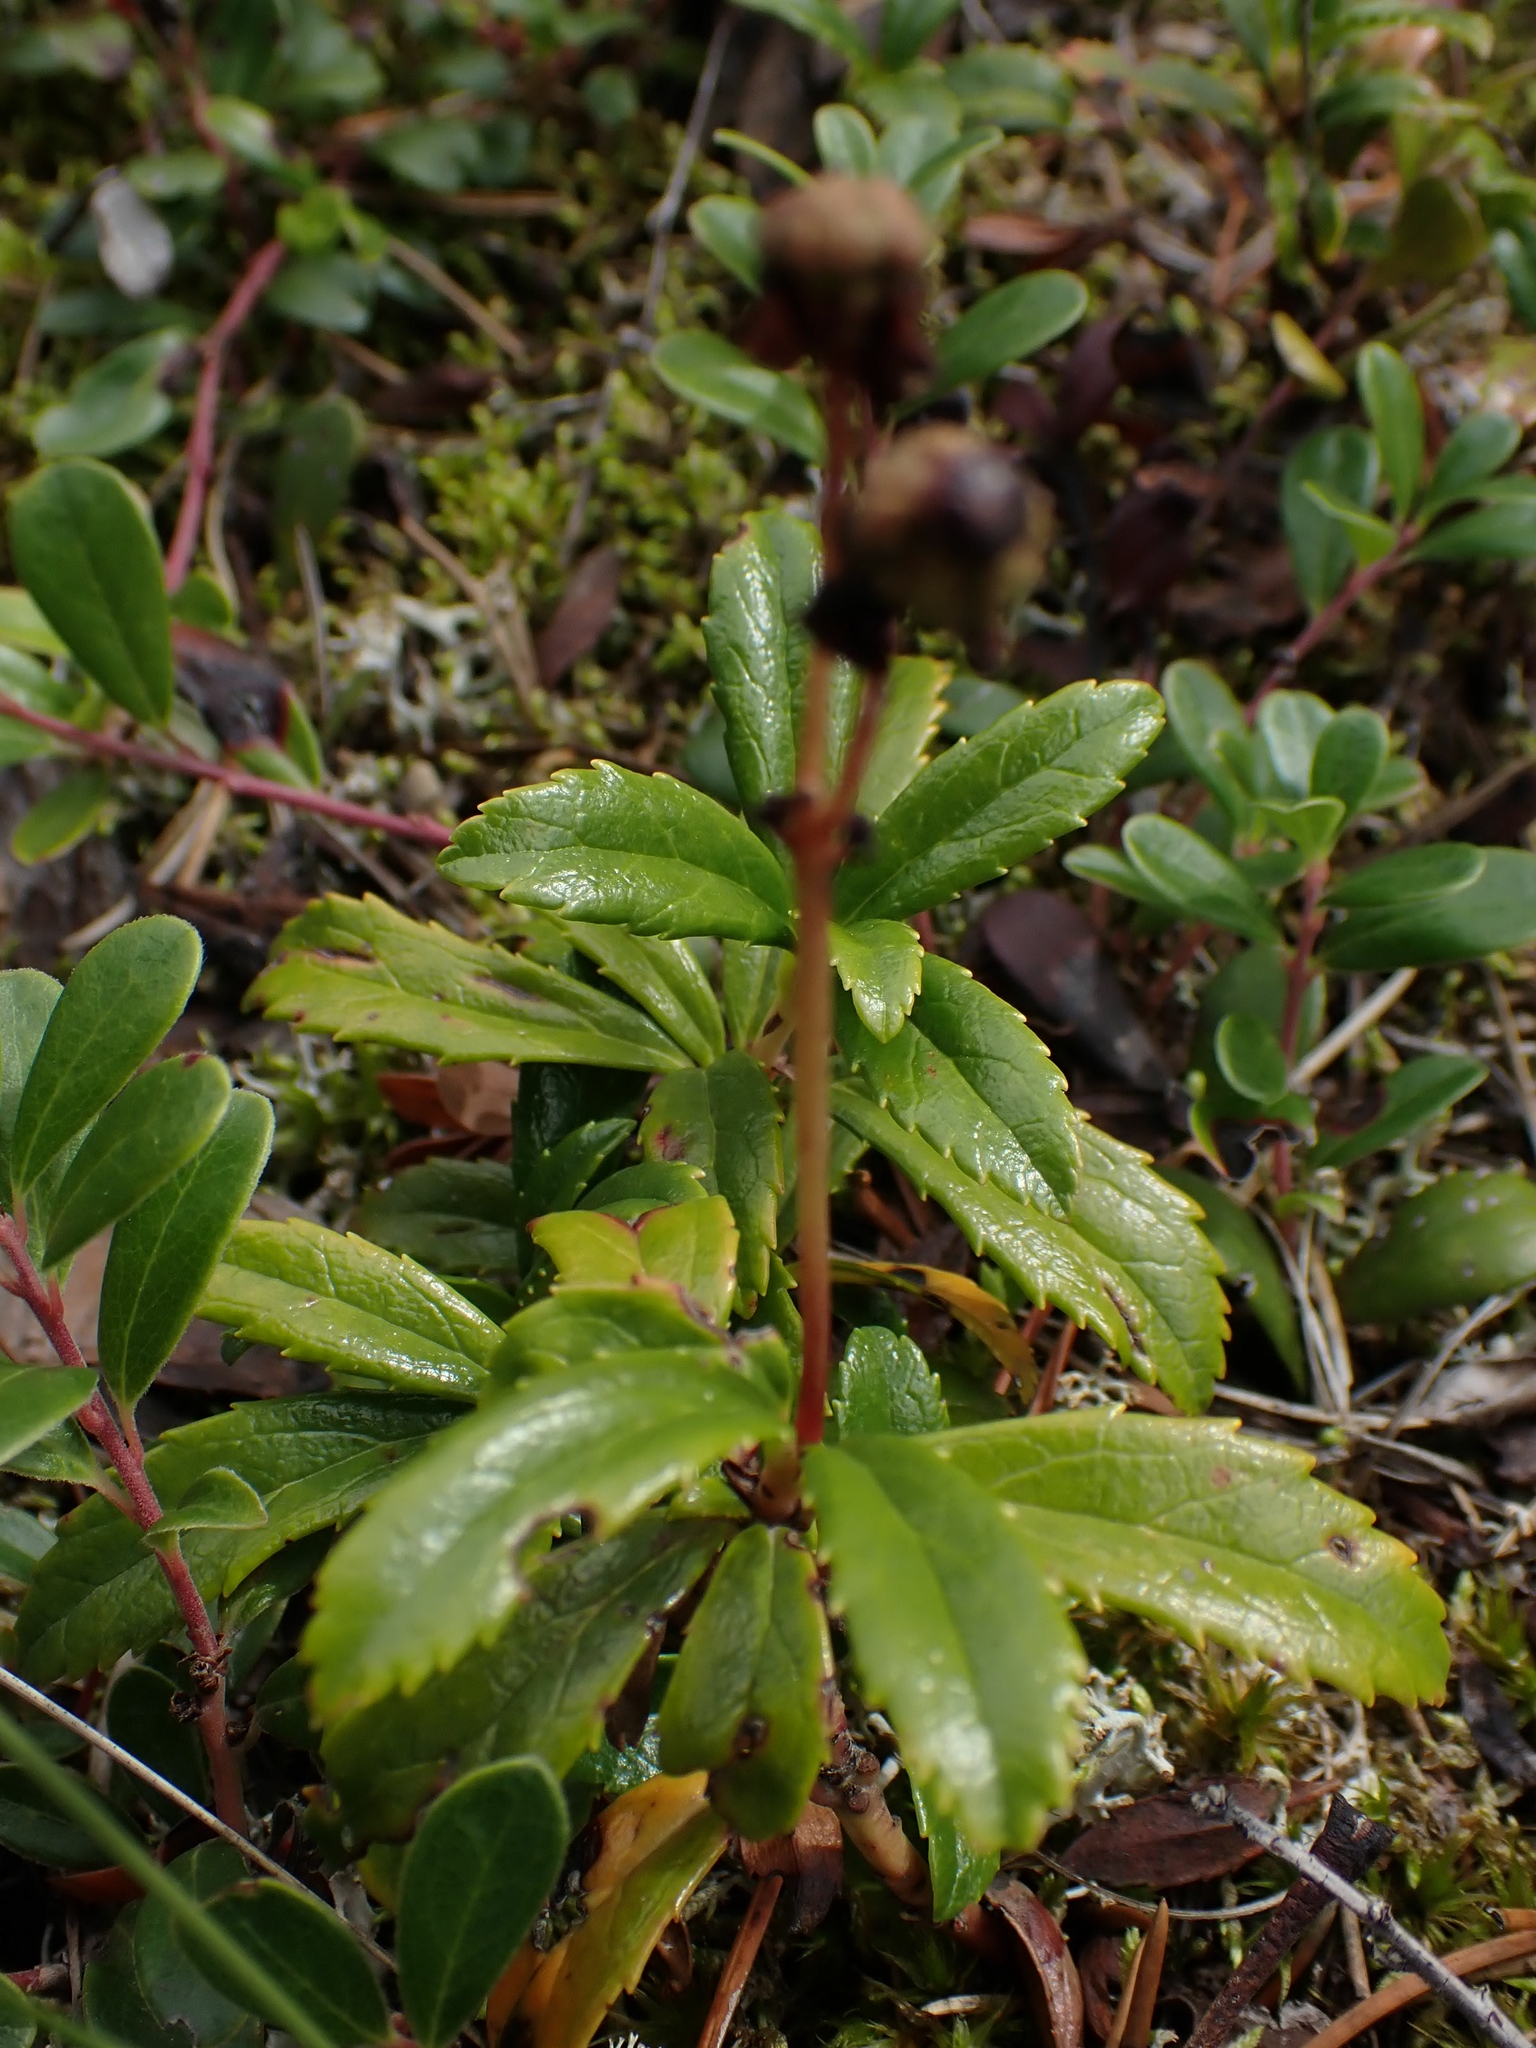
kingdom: Plantae
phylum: Tracheophyta
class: Magnoliopsida
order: Ericales
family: Ericaceae
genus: Chimaphila
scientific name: Chimaphila umbellata
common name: Pipsissewa
